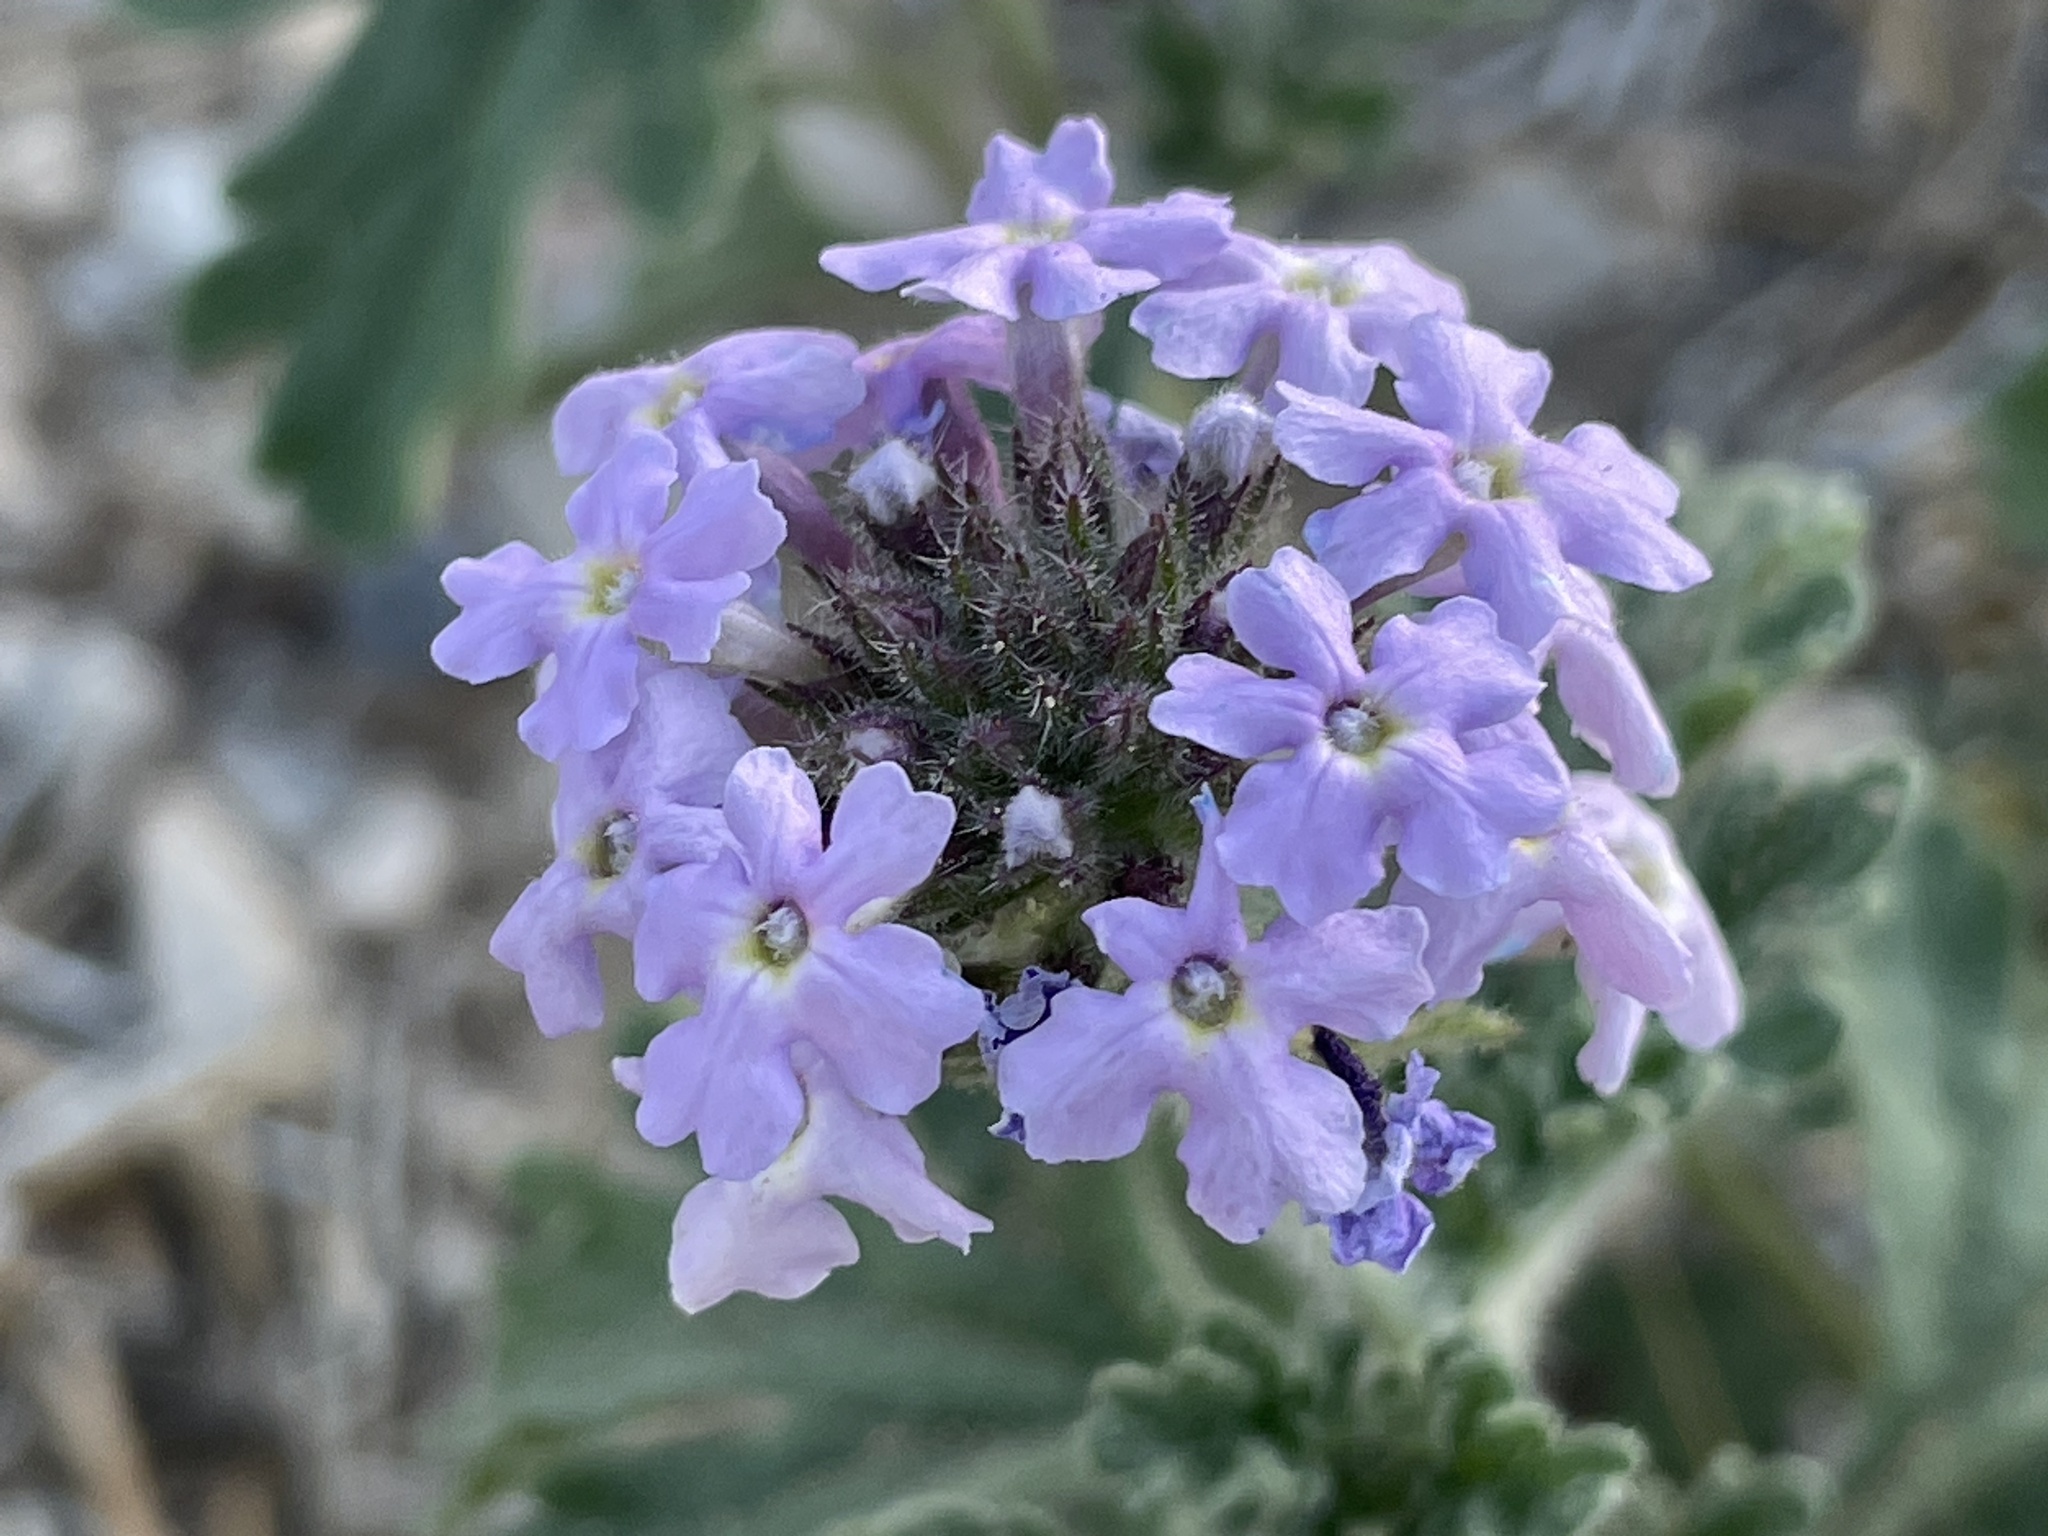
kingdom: Plantae
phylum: Tracheophyta
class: Magnoliopsida
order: Lamiales
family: Verbenaceae
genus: Verbena
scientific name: Verbena gooddingii
